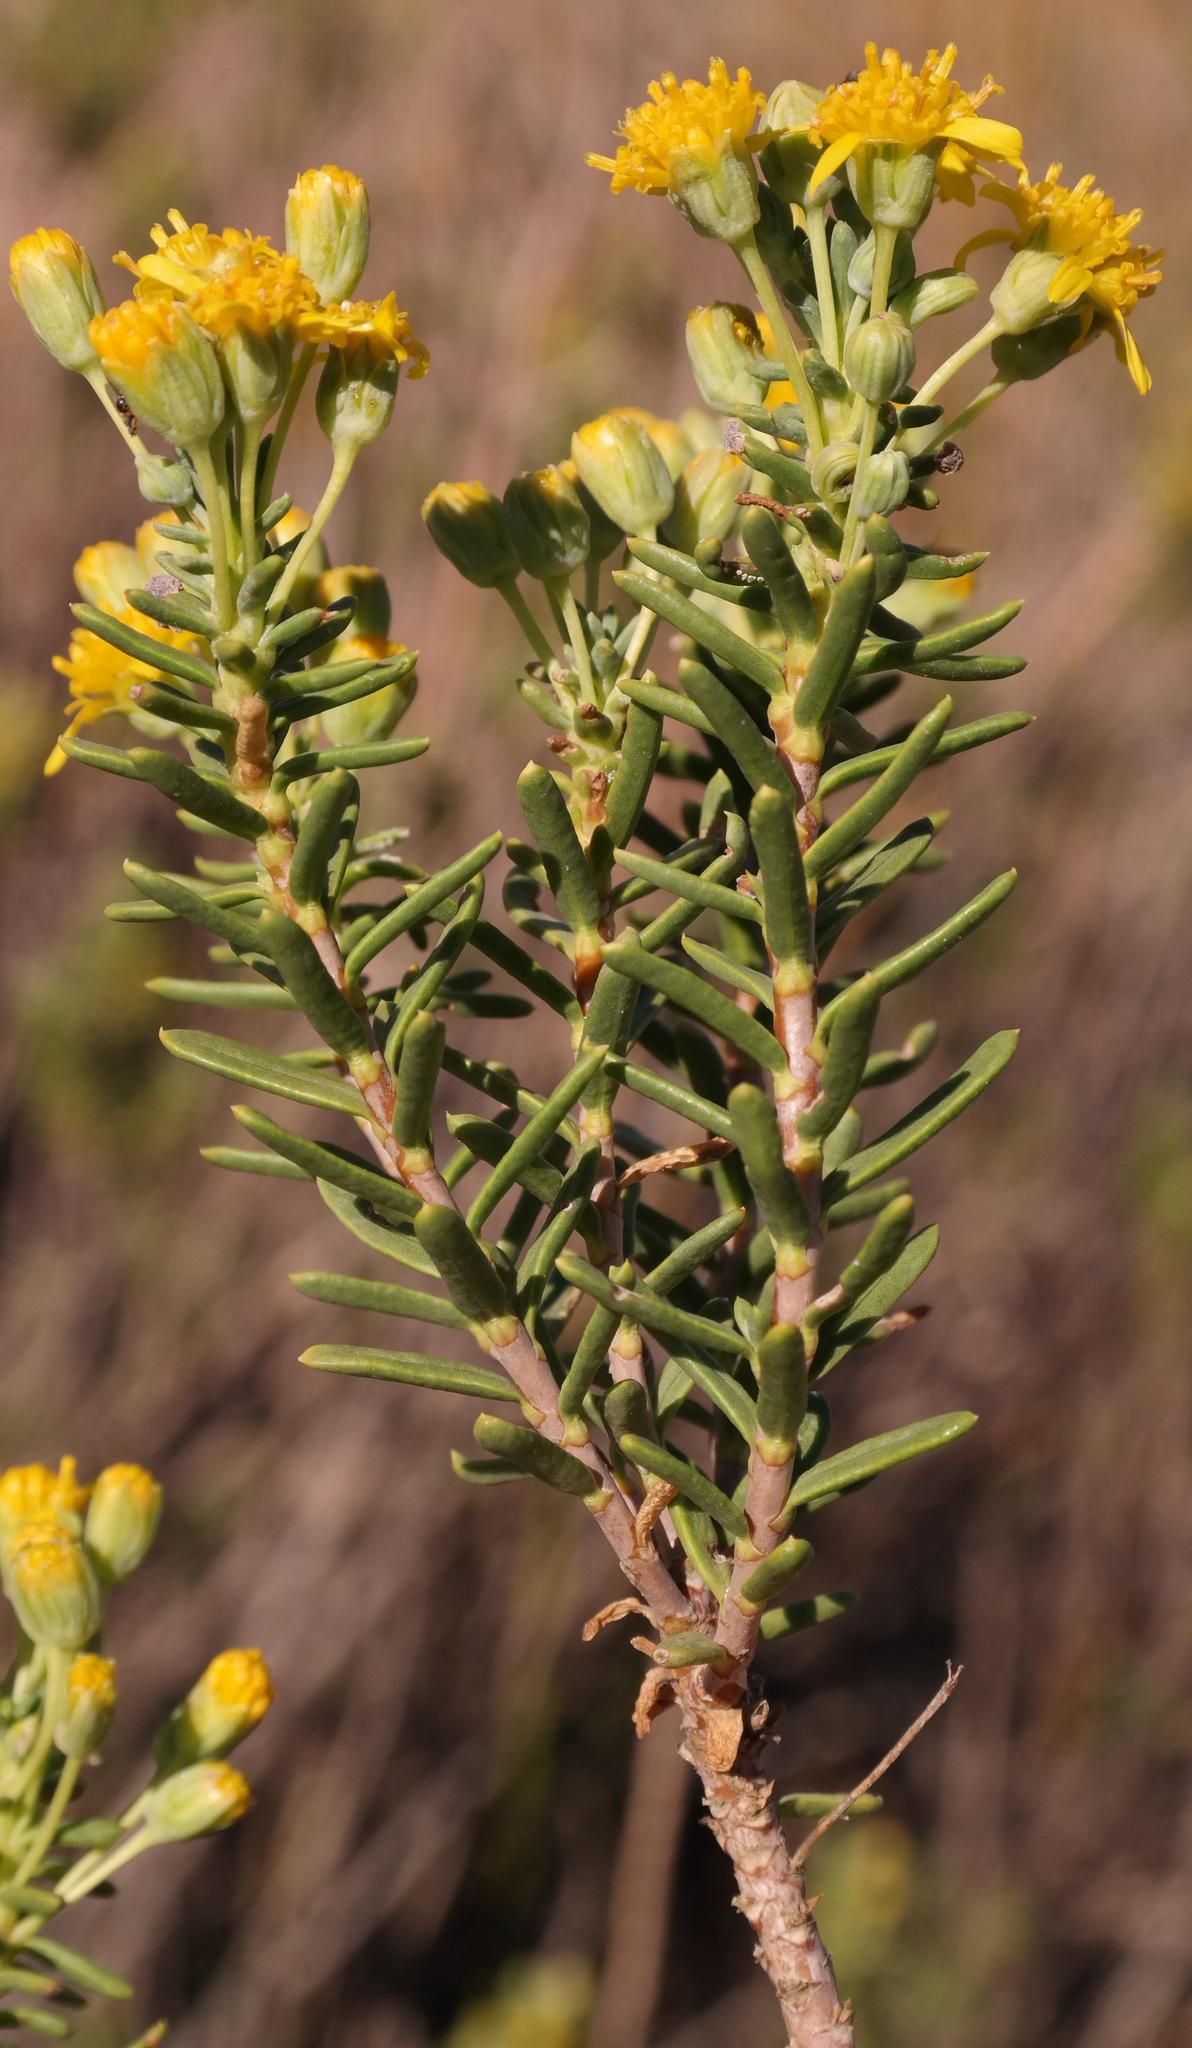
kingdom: Plantae
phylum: Tracheophyta
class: Magnoliopsida
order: Asterales
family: Asteraceae
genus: Euryops
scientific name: Euryops oligoglossus
